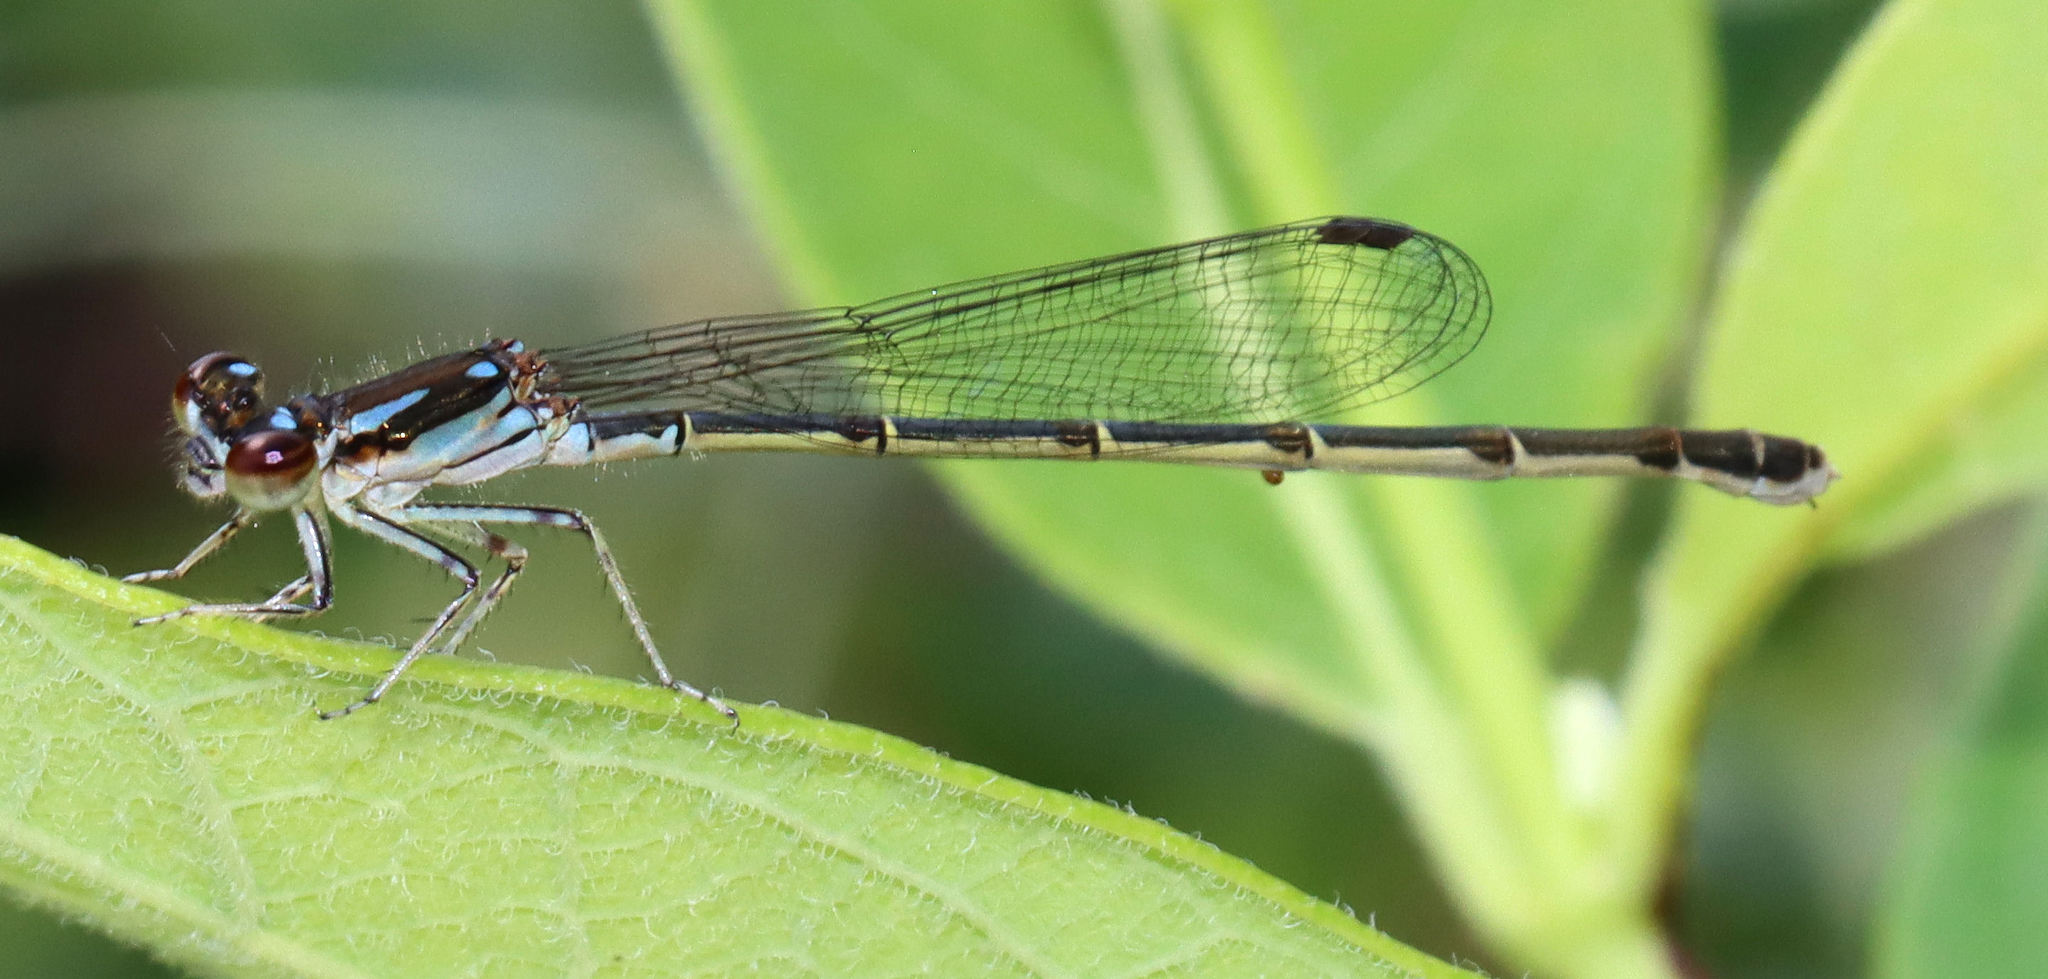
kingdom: Animalia
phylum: Arthropoda
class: Insecta
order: Odonata
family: Coenagrionidae
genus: Ischnura
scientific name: Ischnura posita
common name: Fragile forktail
